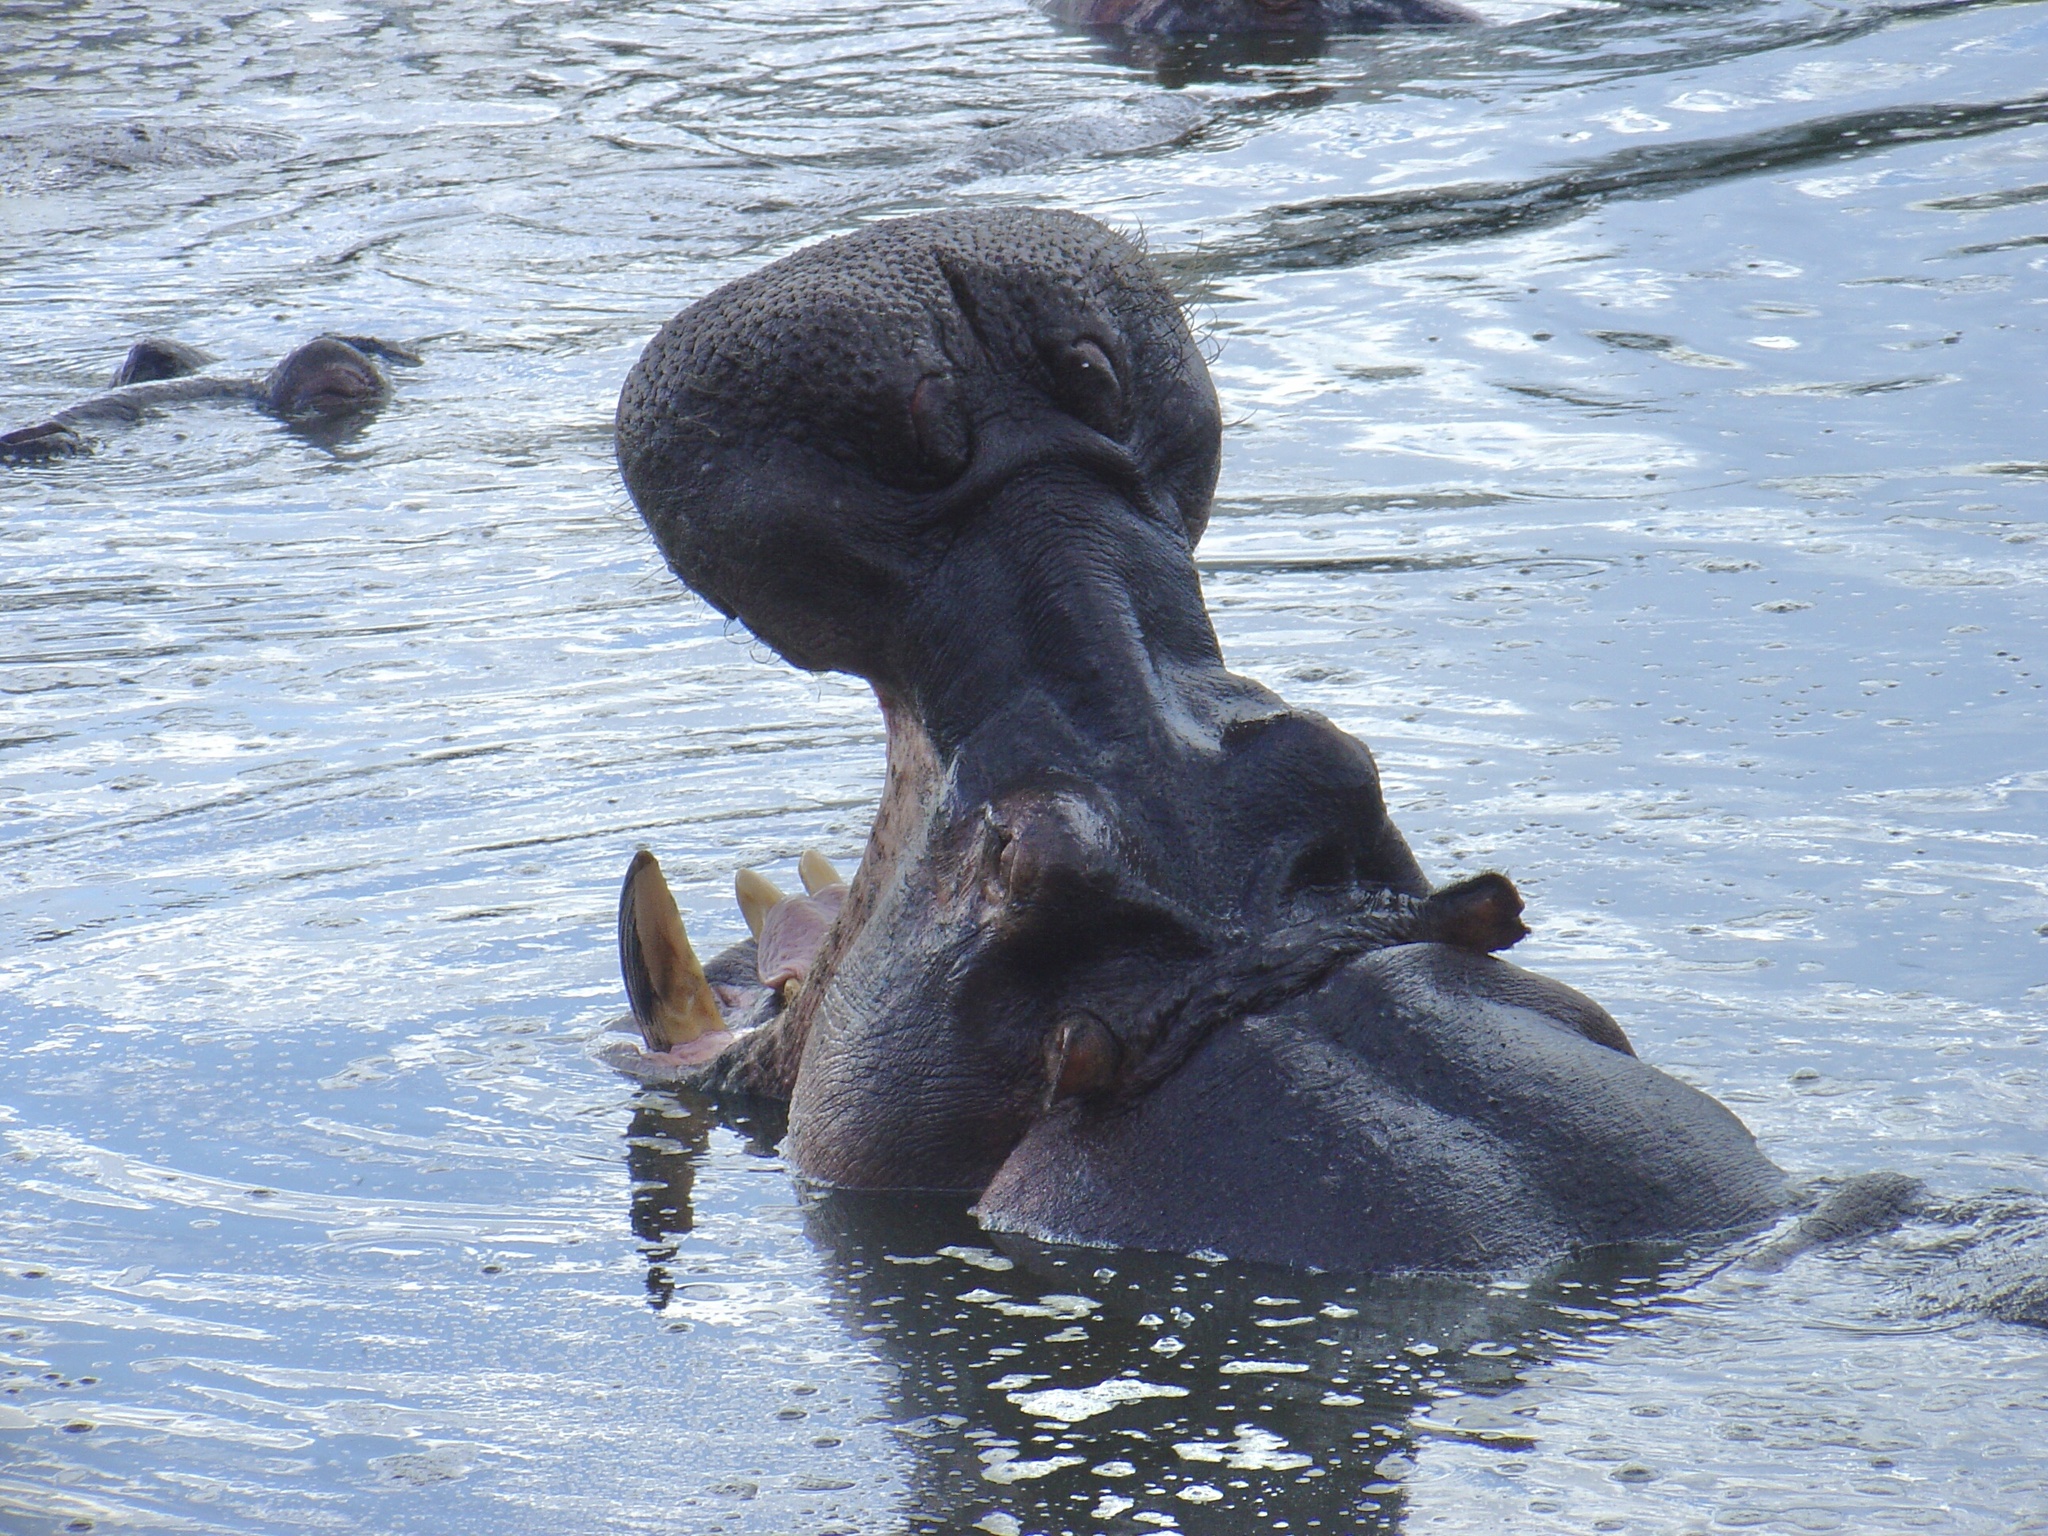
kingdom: Animalia
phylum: Chordata
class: Mammalia
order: Artiodactyla
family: Hippopotamidae
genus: Hippopotamus
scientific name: Hippopotamus amphibius
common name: Common hippopotamus
